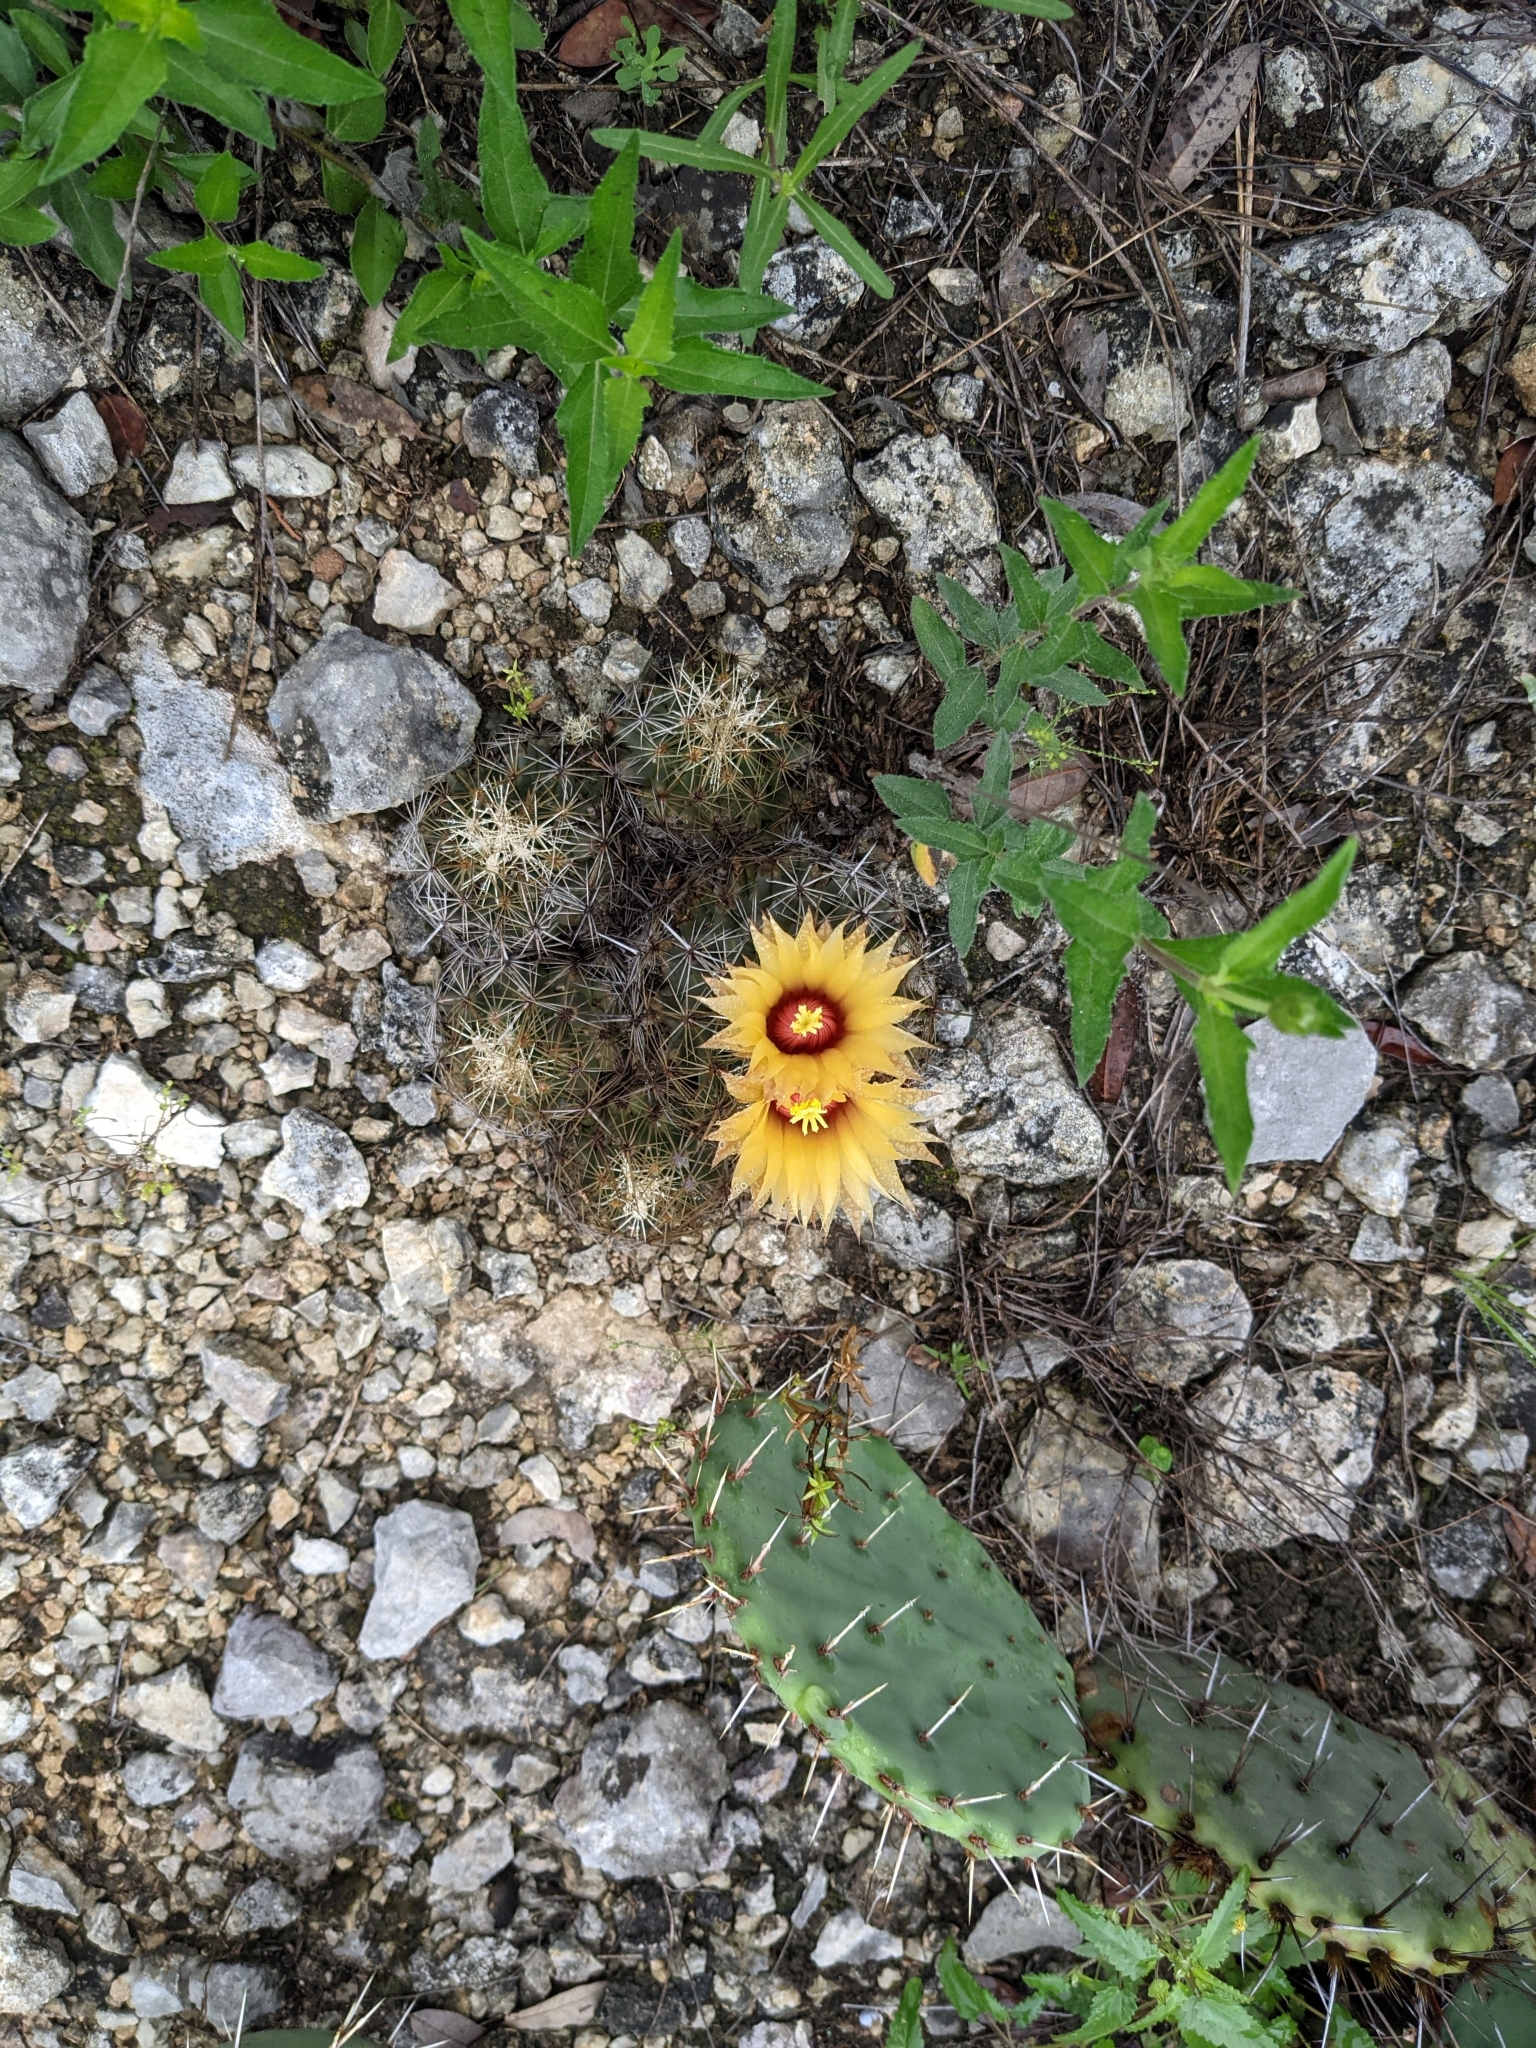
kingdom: Plantae
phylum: Tracheophyta
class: Magnoliopsida
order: Caryophyllales
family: Cactaceae
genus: Coryphantha
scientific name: Coryphantha sulcata
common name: Finger cactus
